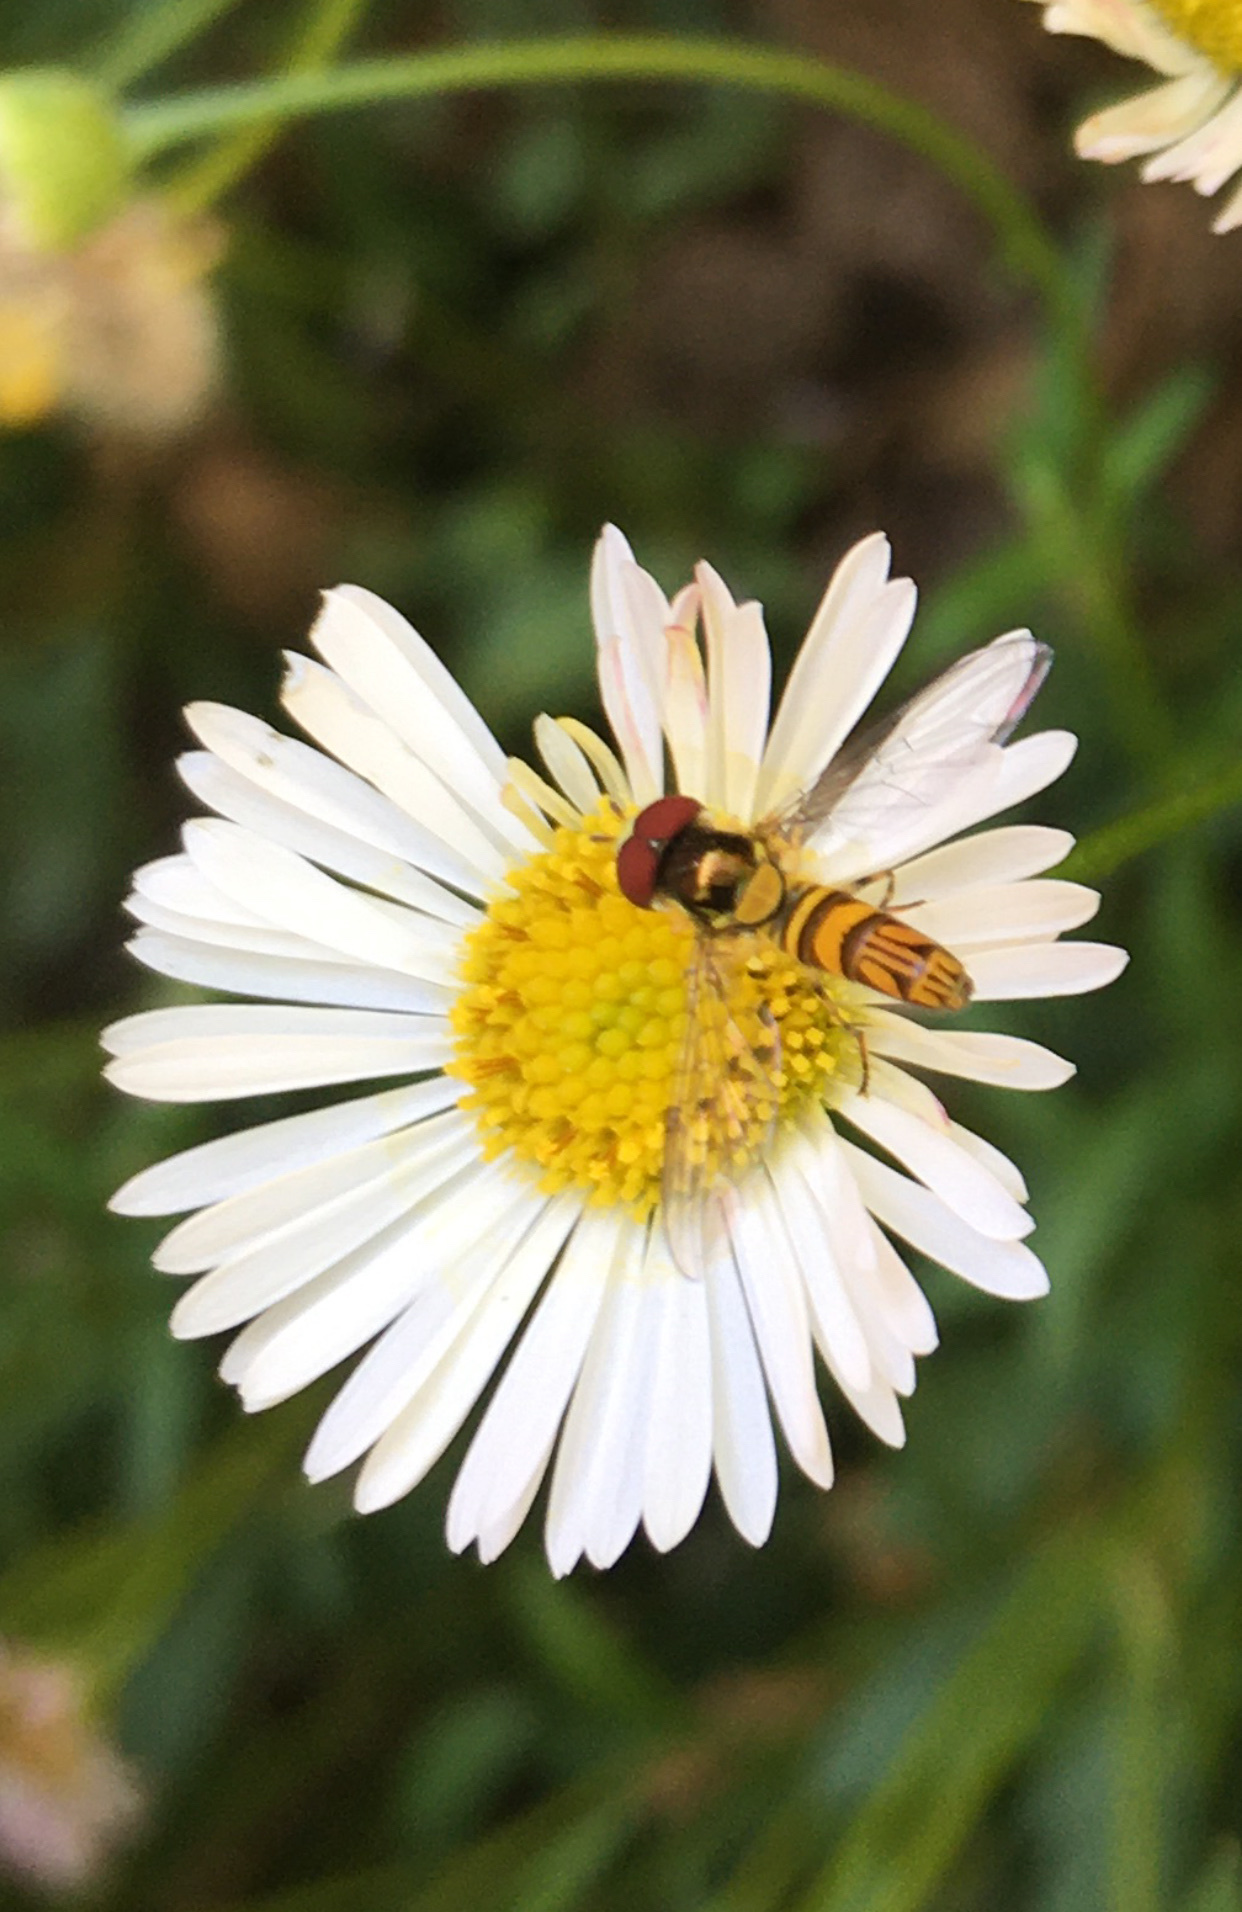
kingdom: Animalia
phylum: Arthropoda
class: Insecta
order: Diptera
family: Syrphidae
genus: Allograpta
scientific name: Allograpta obliqua
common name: Common oblique syrphid
